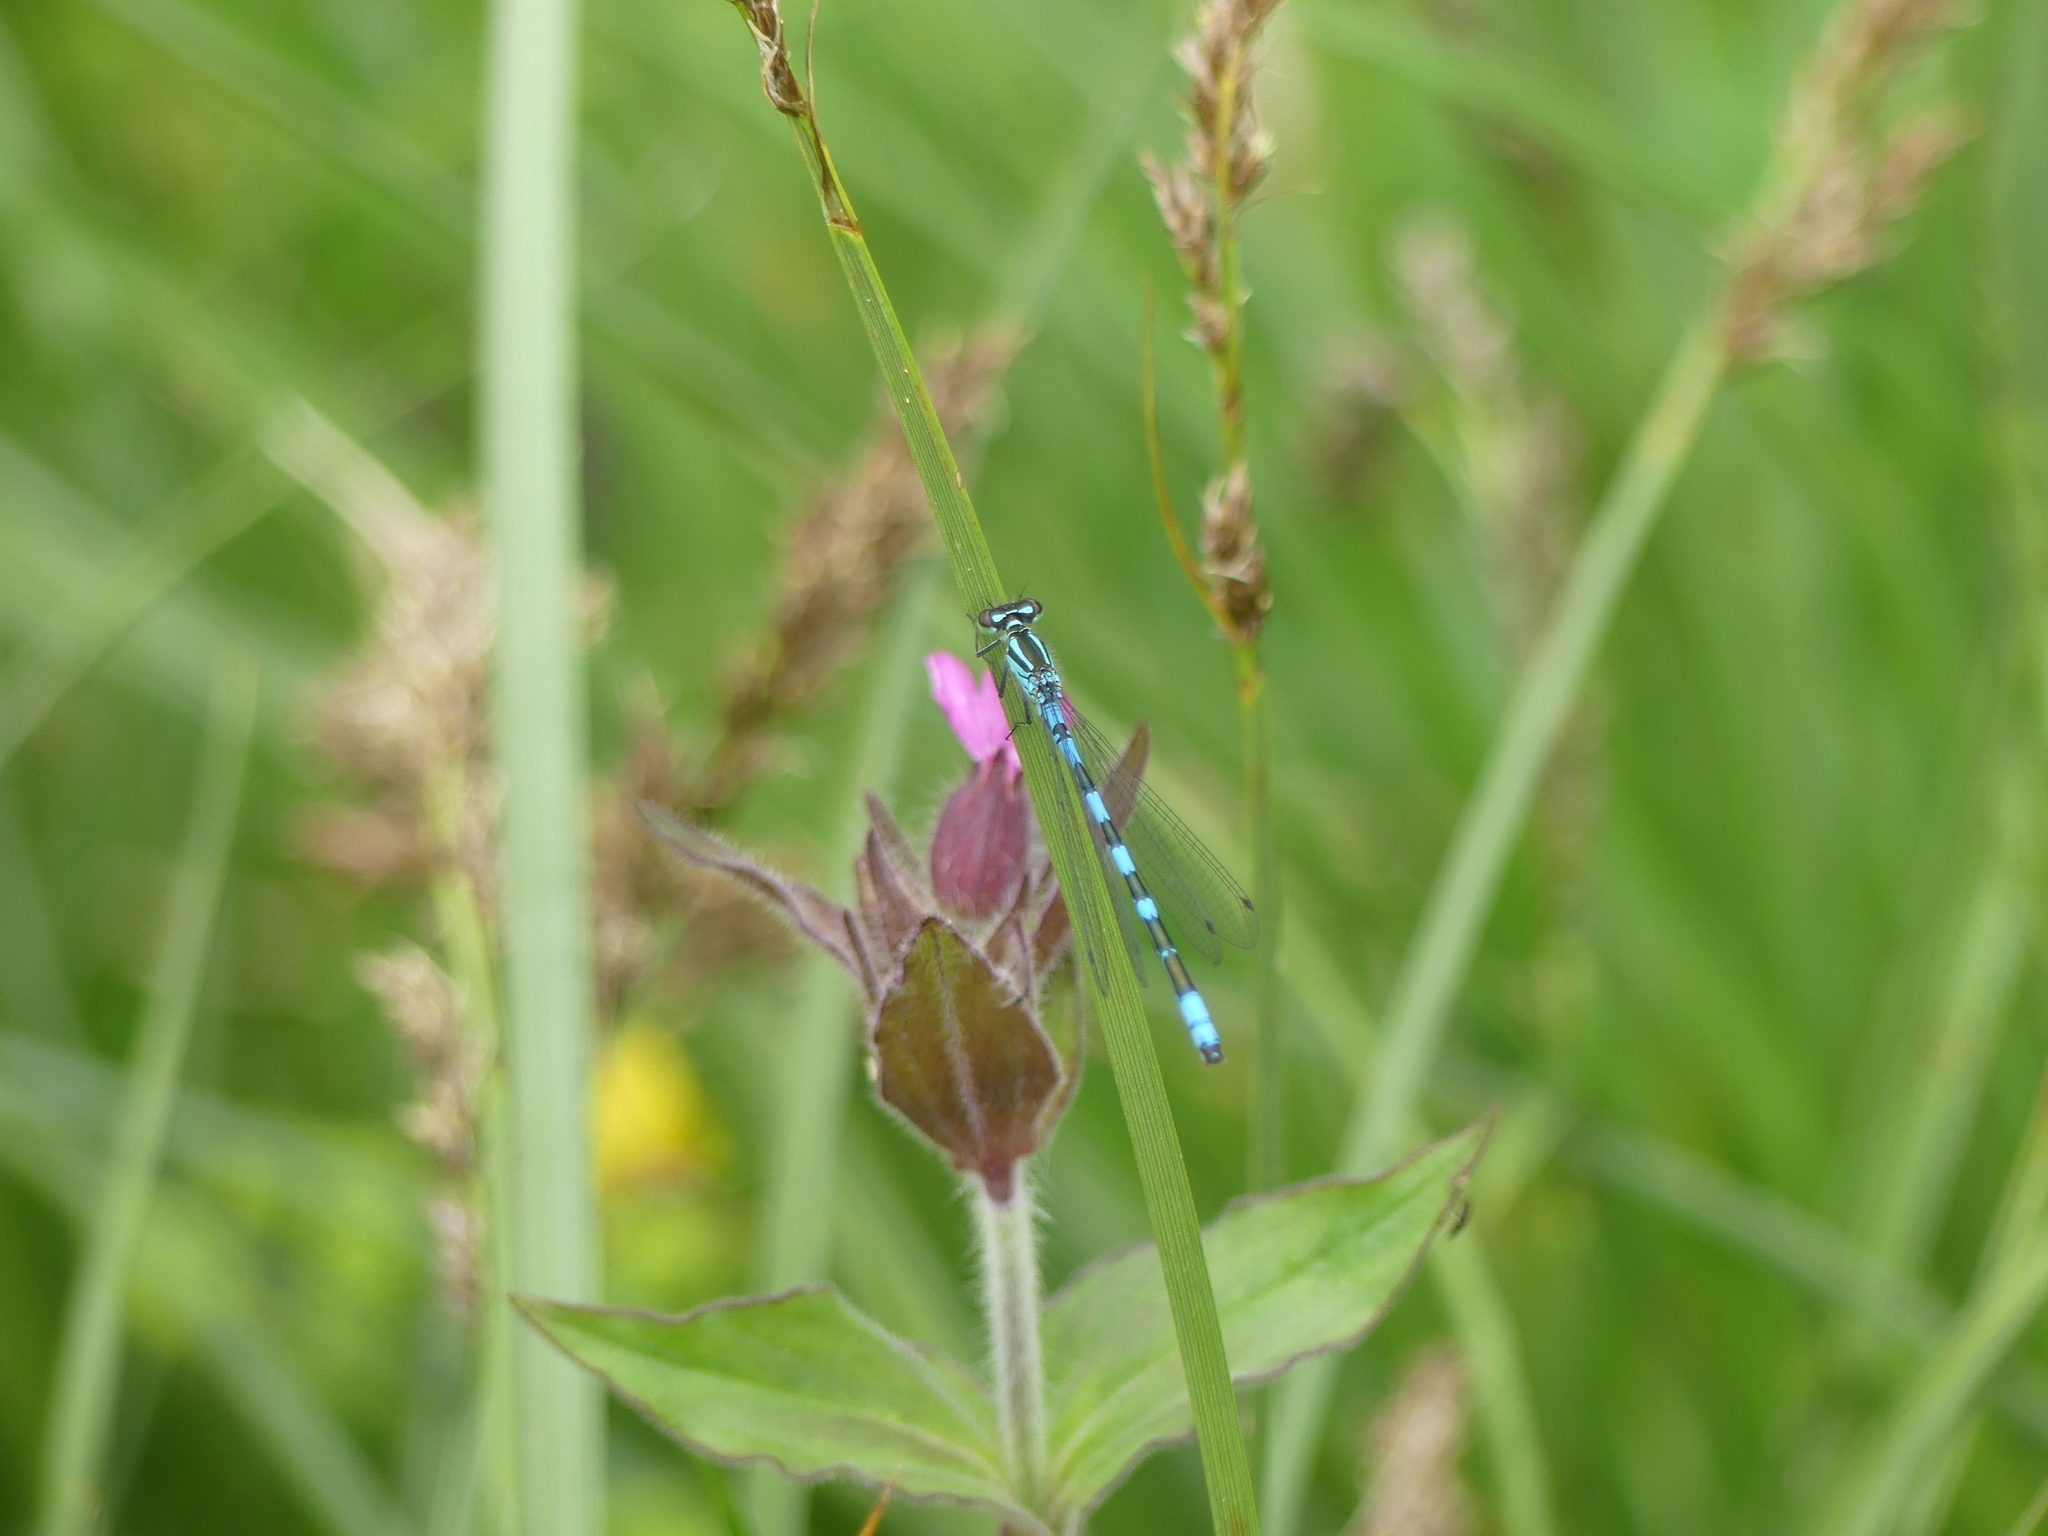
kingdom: Animalia
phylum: Arthropoda
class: Insecta
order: Odonata
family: Coenagrionidae
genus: Coenagrion
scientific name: Coenagrion hastulatum
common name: Spearhead bluet
